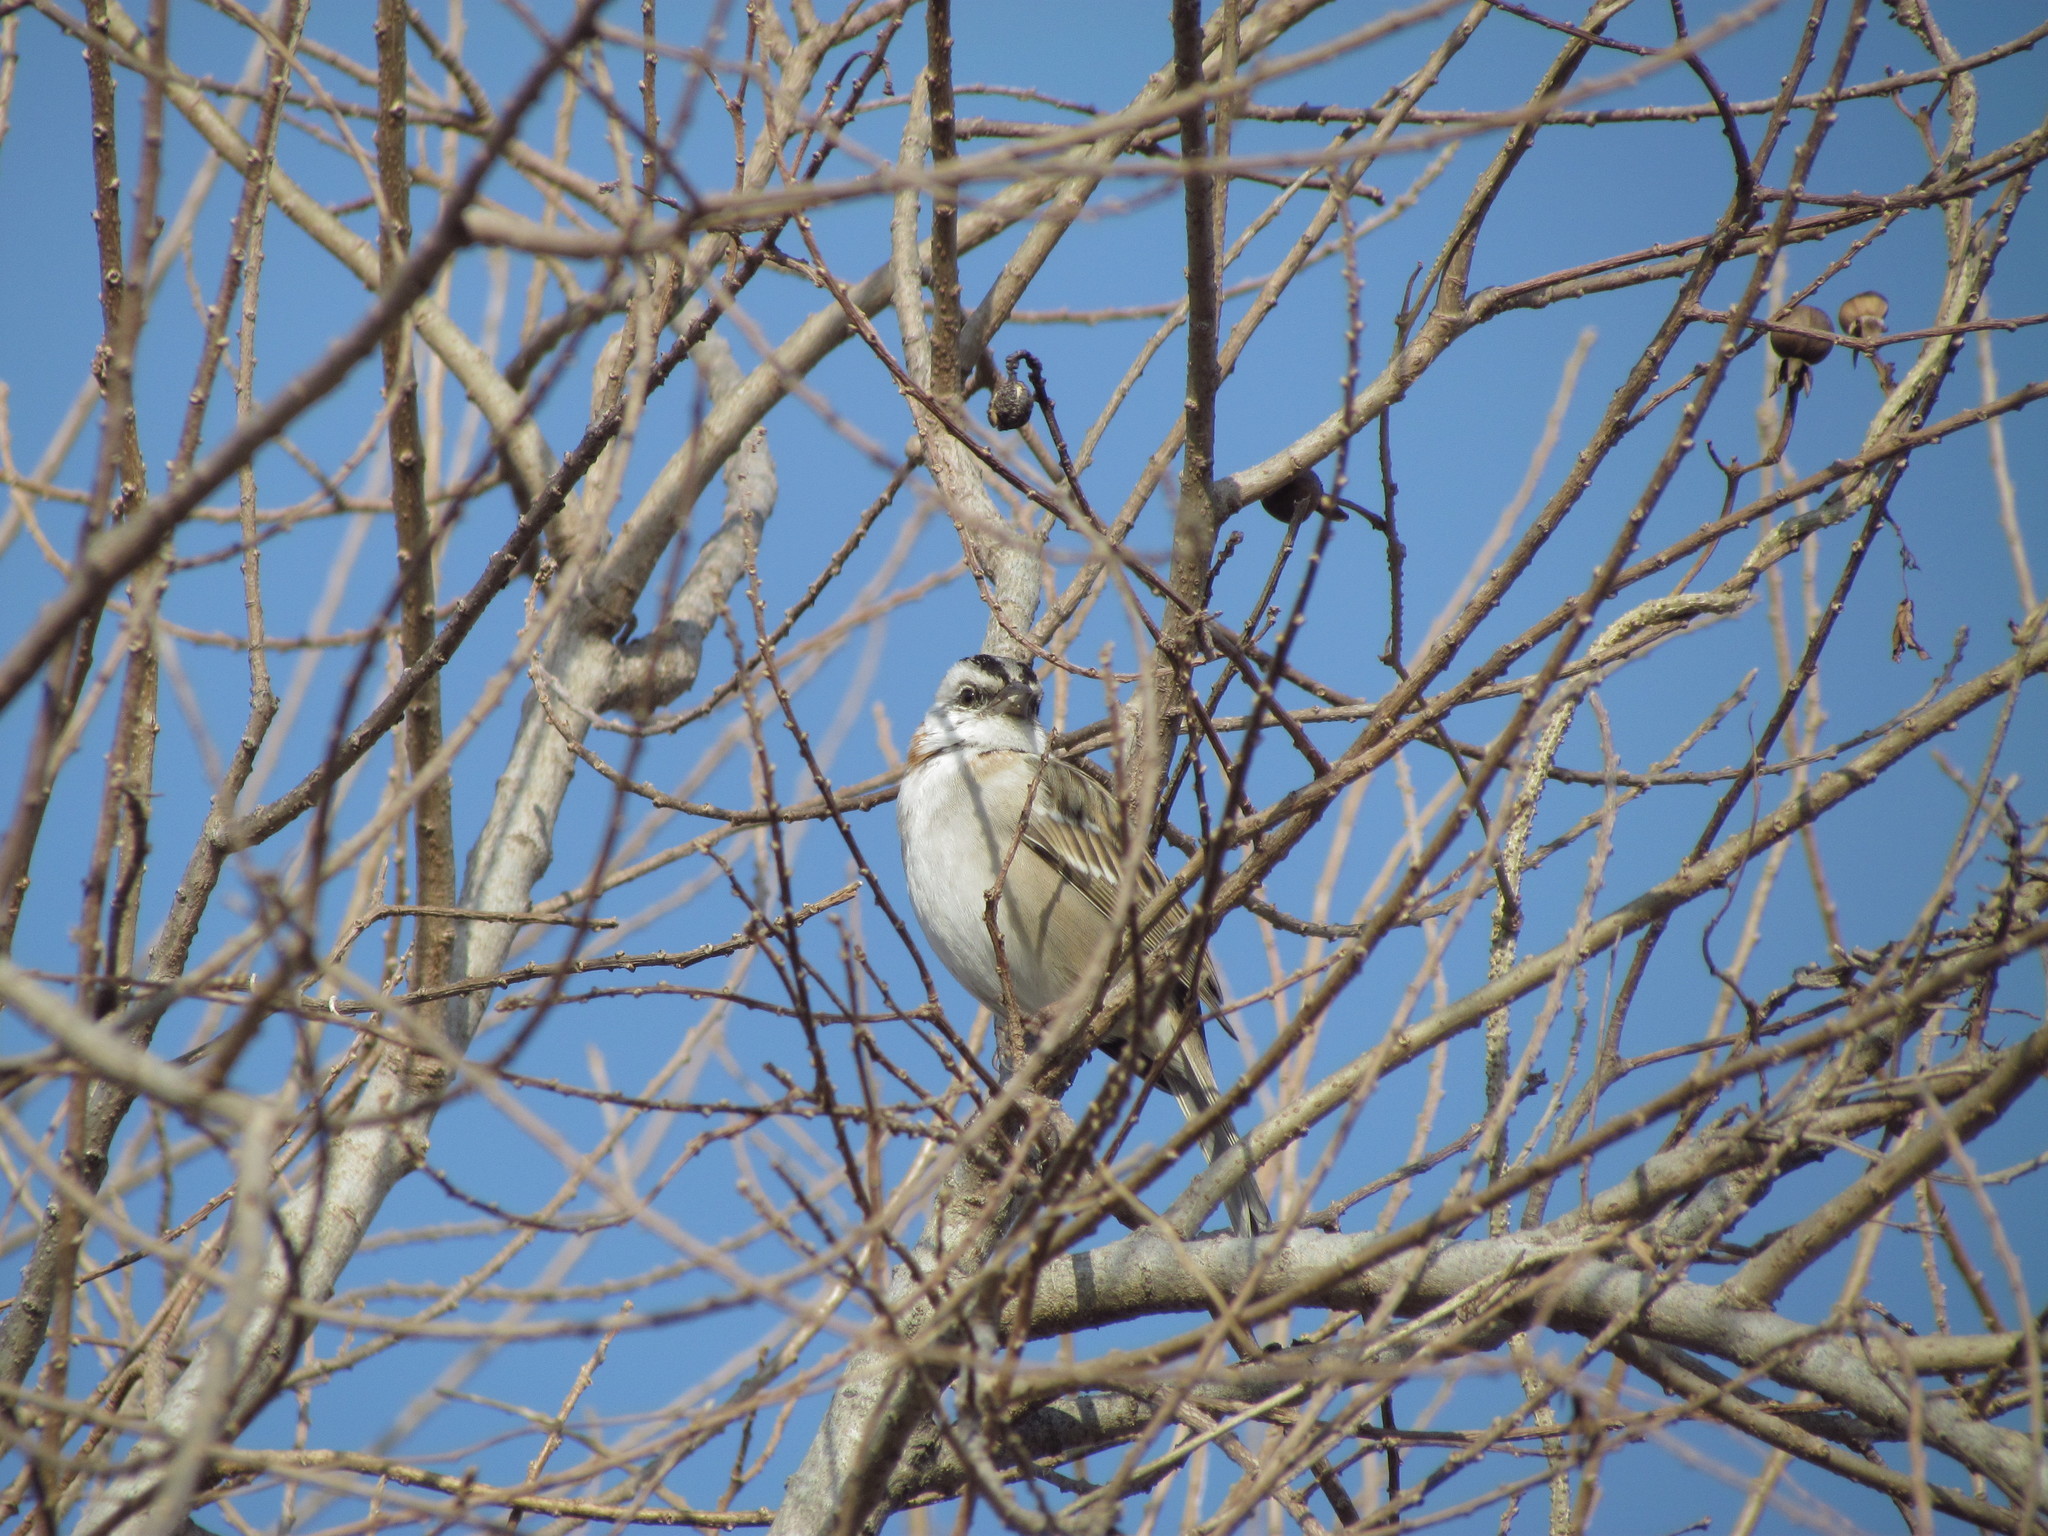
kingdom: Animalia
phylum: Chordata
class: Aves
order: Passeriformes
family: Passerellidae
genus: Zonotrichia
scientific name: Zonotrichia capensis
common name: Rufous-collared sparrow
